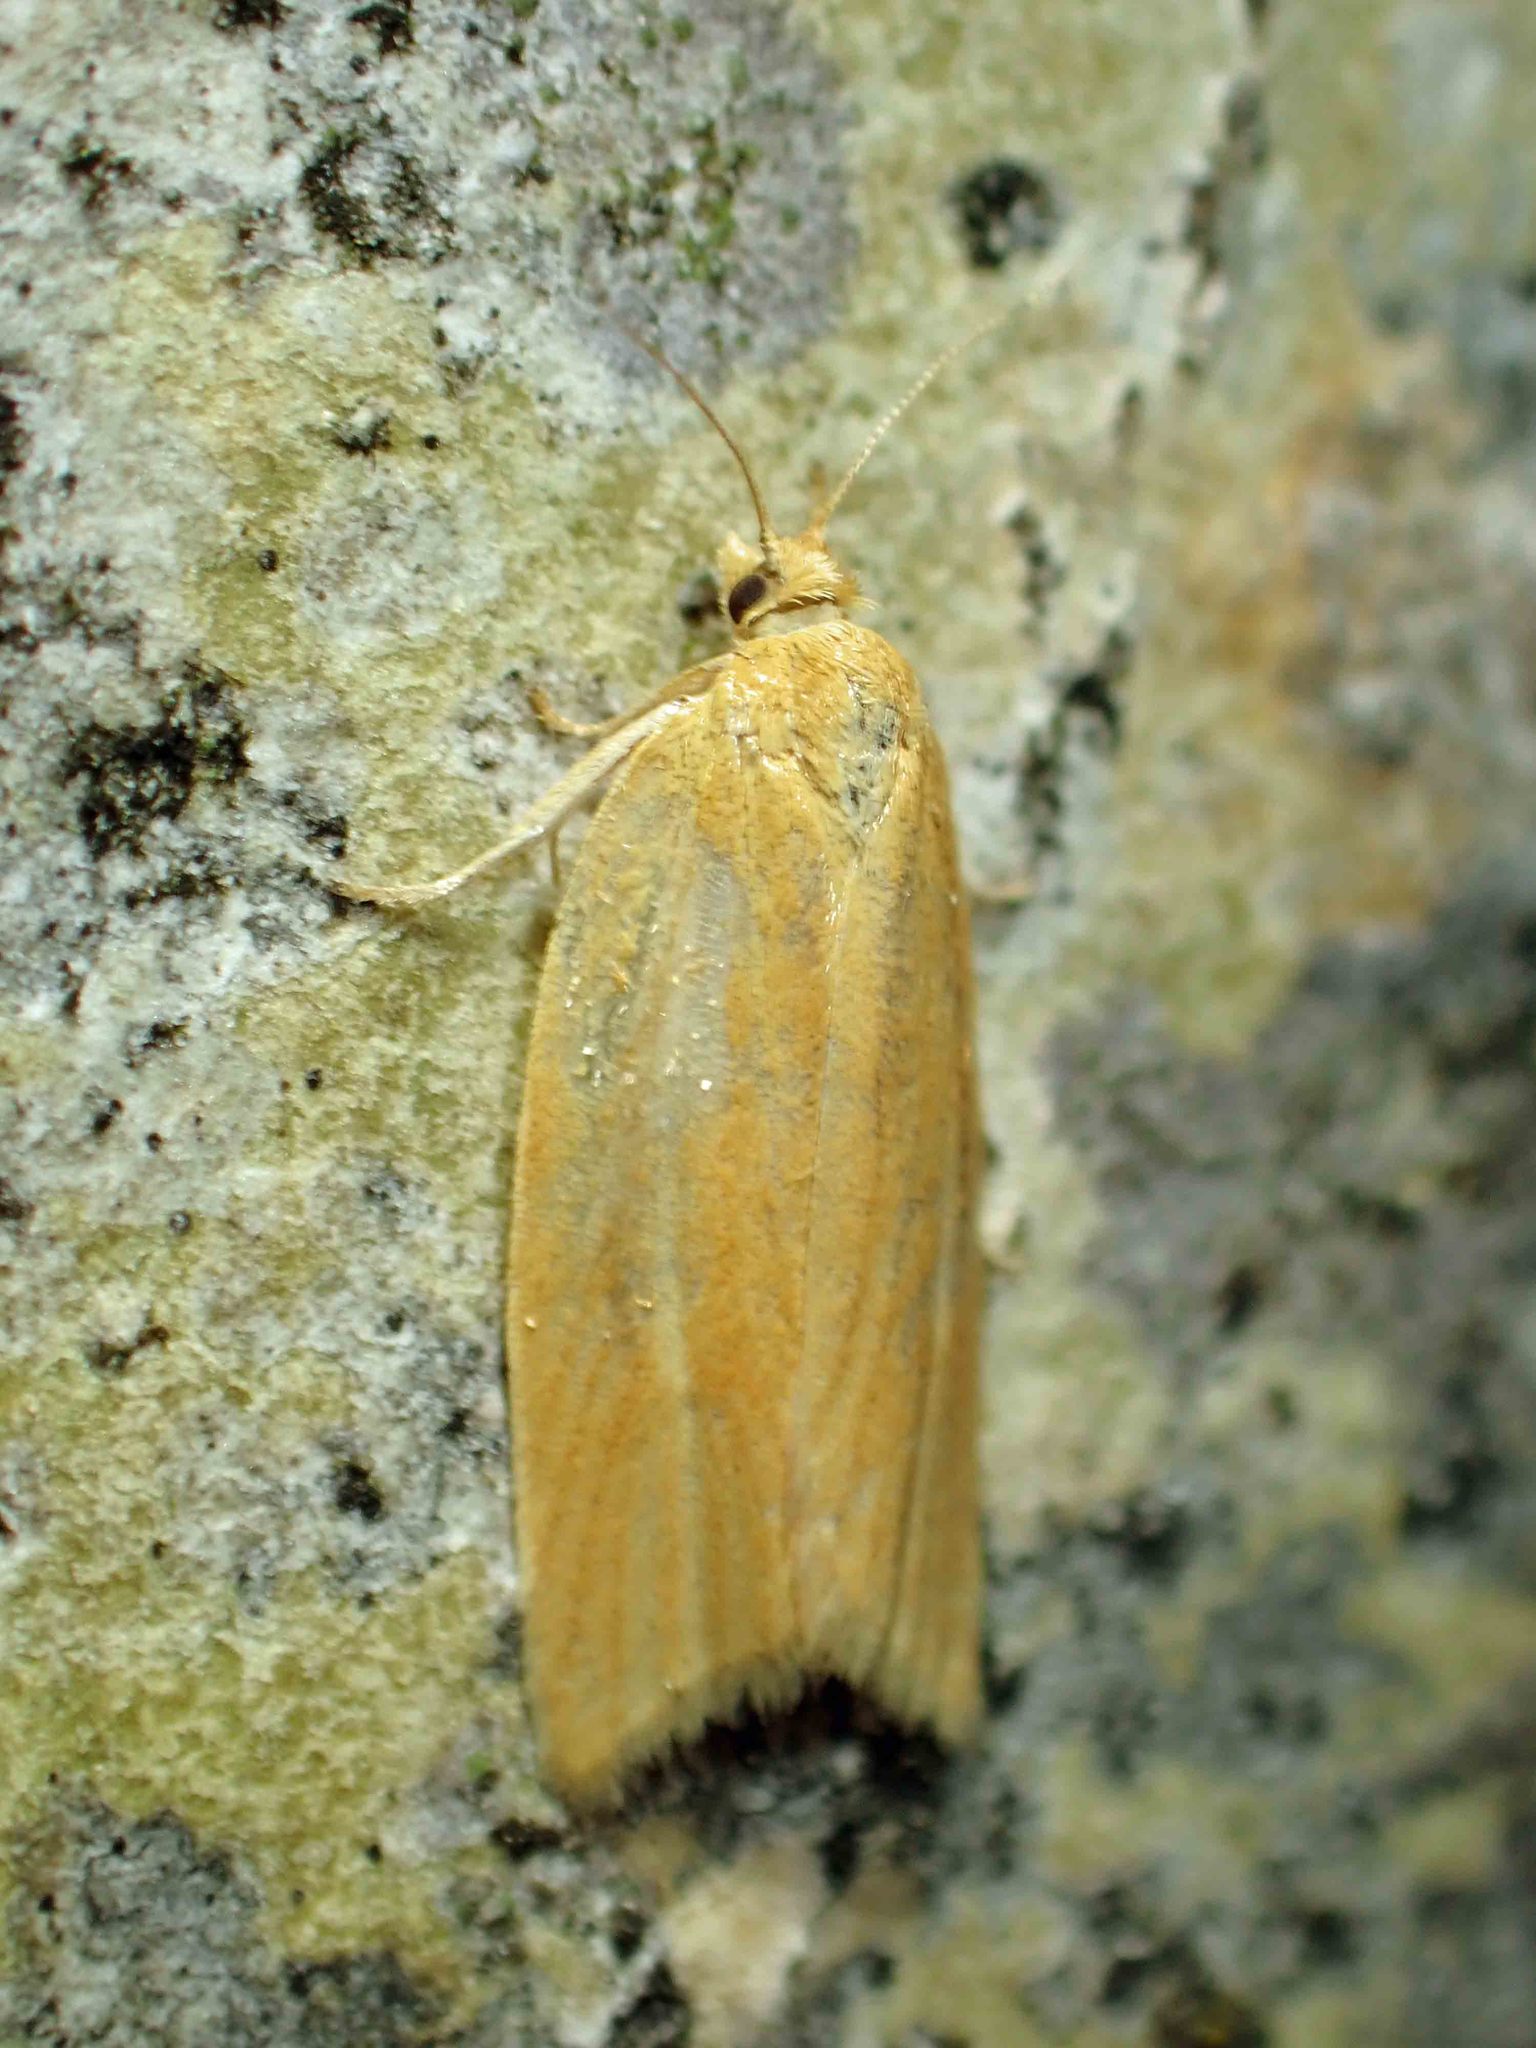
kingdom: Animalia
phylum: Arthropoda
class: Insecta
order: Lepidoptera
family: Tortricidae
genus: Clepsis
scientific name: Clepsis clemensiana
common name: Clemens' clepsis moth
